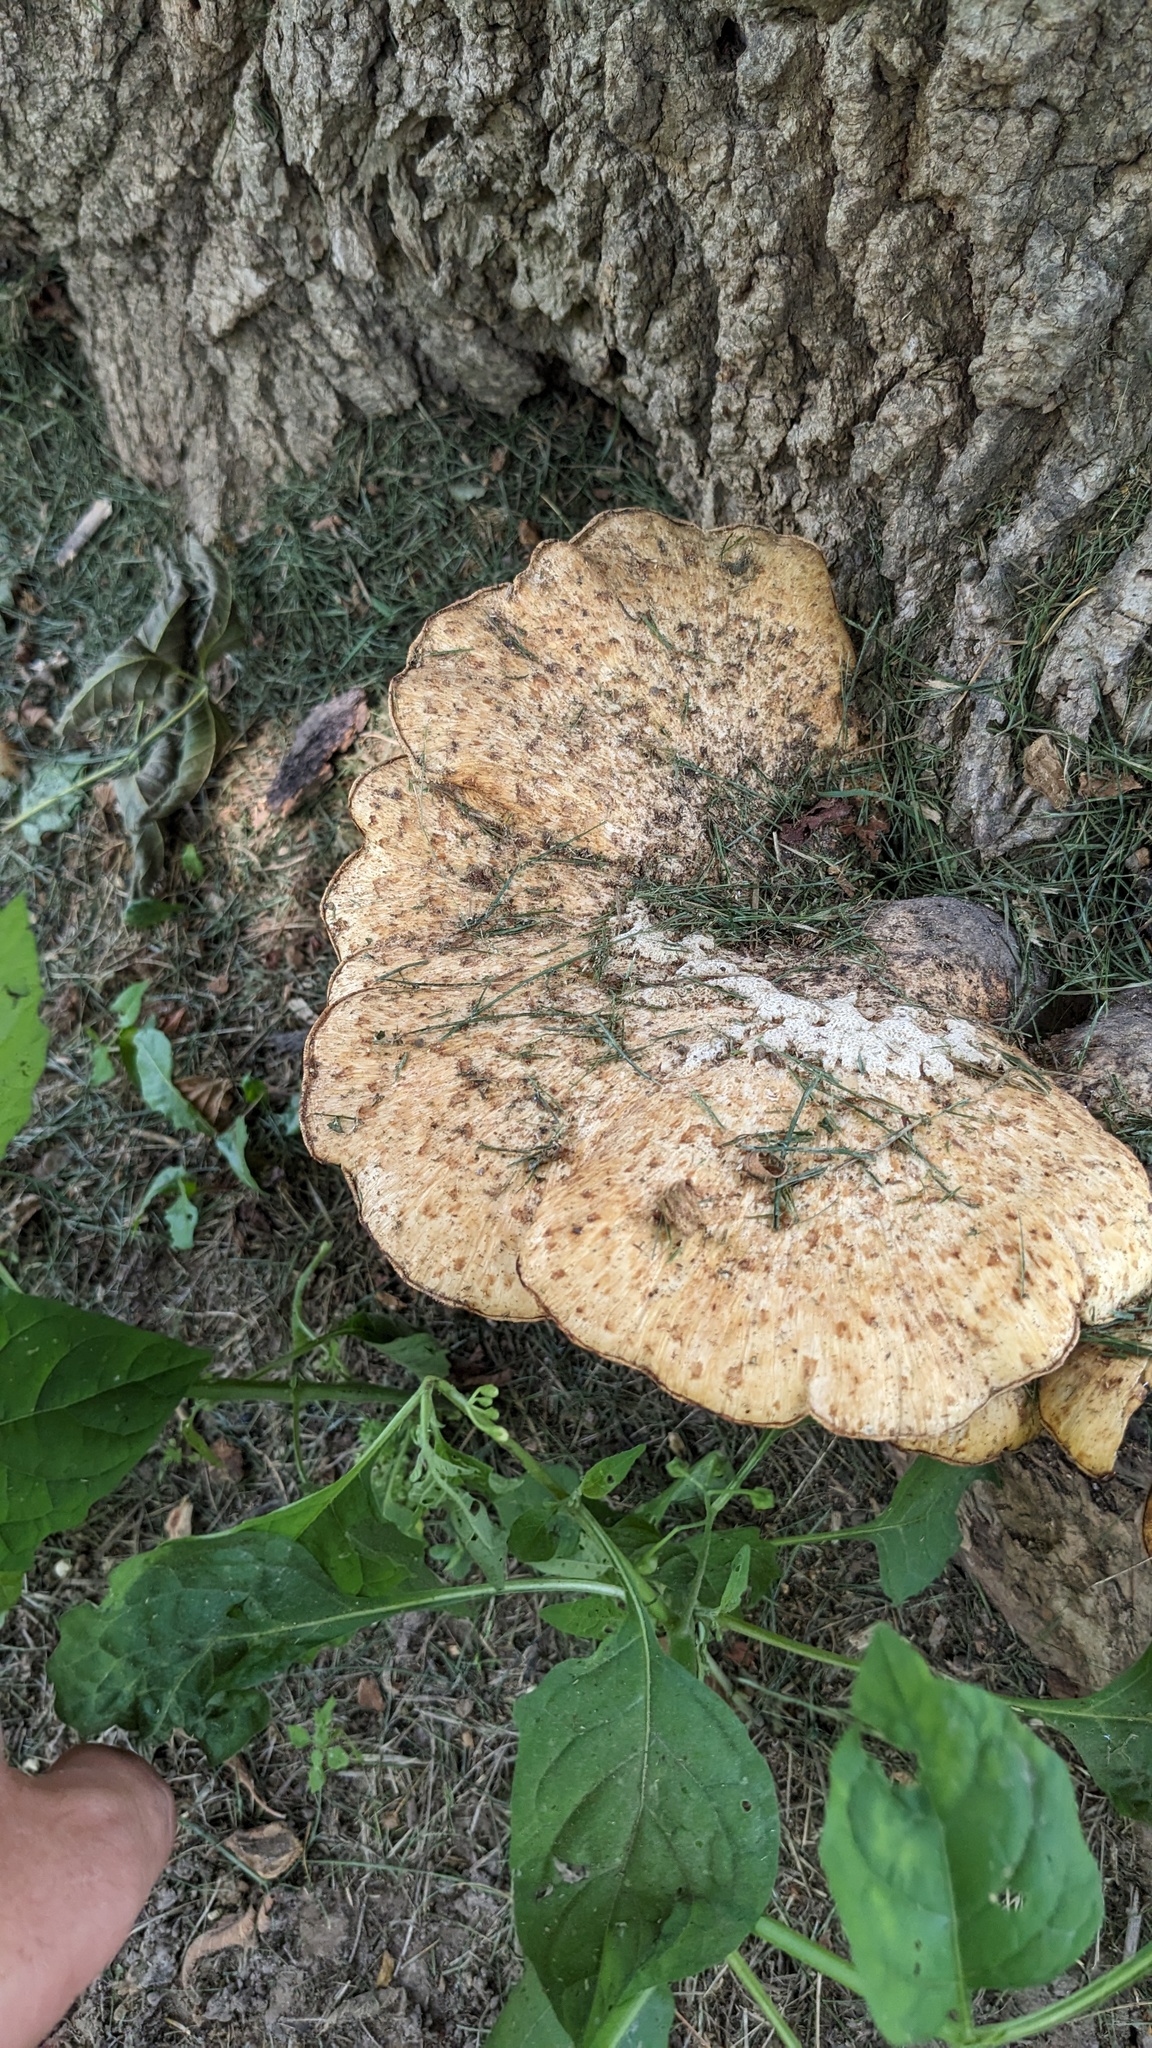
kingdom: Fungi
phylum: Basidiomycota
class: Agaricomycetes
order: Polyporales
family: Polyporaceae
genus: Cerioporus
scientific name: Cerioporus squamosus
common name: Dryad's saddle
